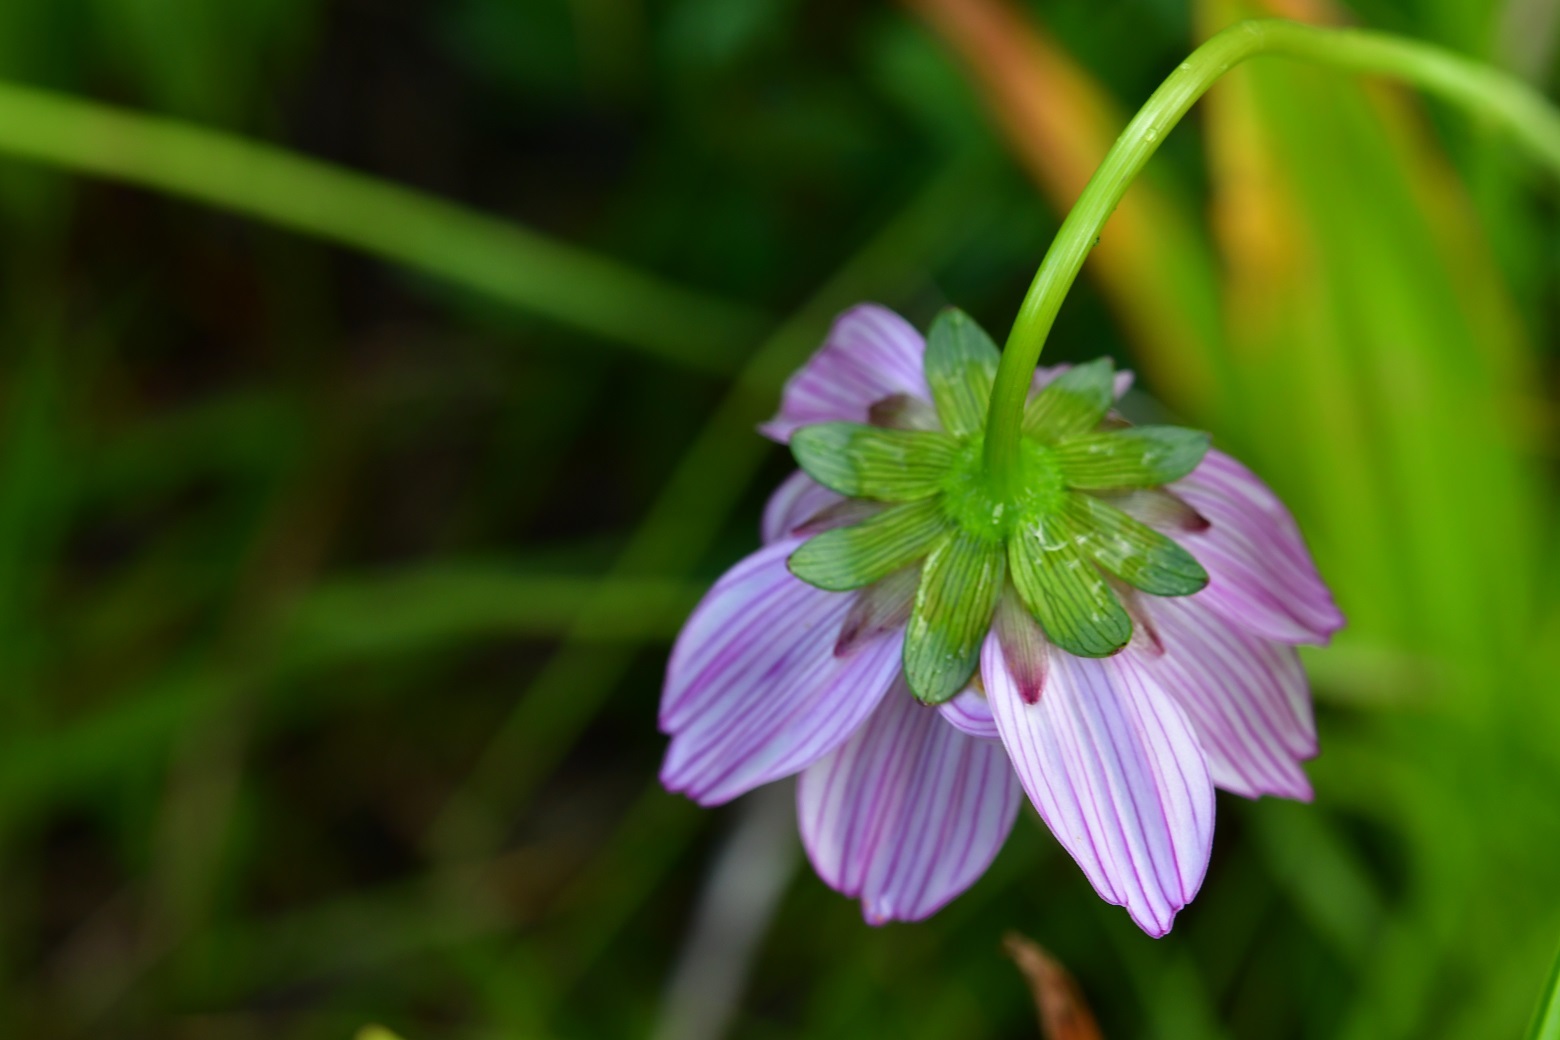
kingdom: Plantae
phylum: Tracheophyta
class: Magnoliopsida
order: Asterales
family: Asteraceae
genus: Cosmos
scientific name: Cosmos diversifolius
